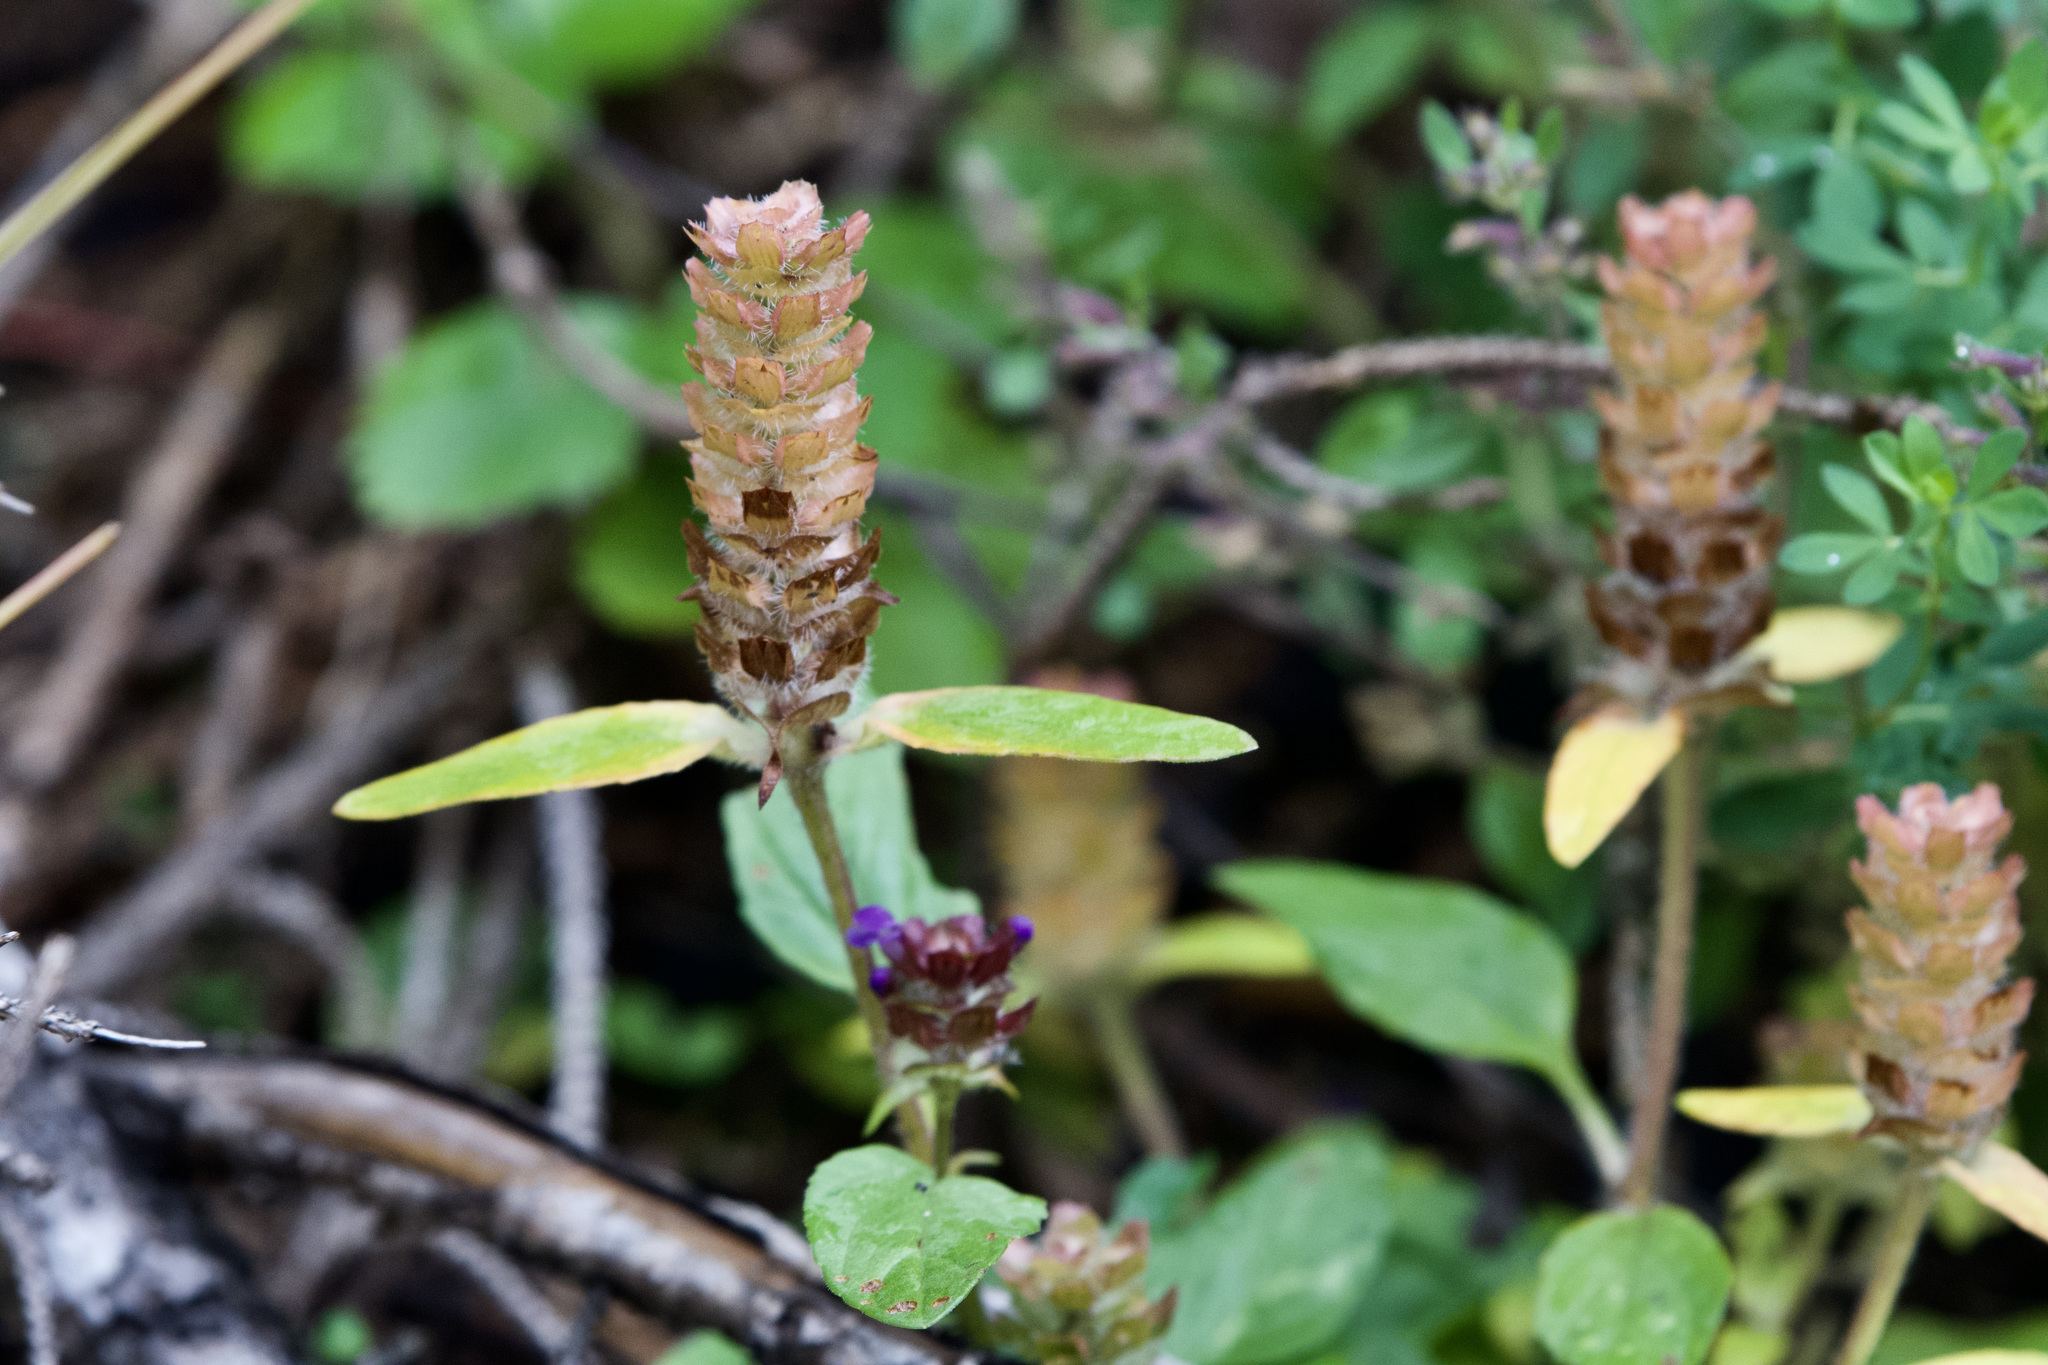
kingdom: Plantae
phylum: Tracheophyta
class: Magnoliopsida
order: Lamiales
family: Lamiaceae
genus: Prunella
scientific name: Prunella vulgaris
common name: Heal-all
